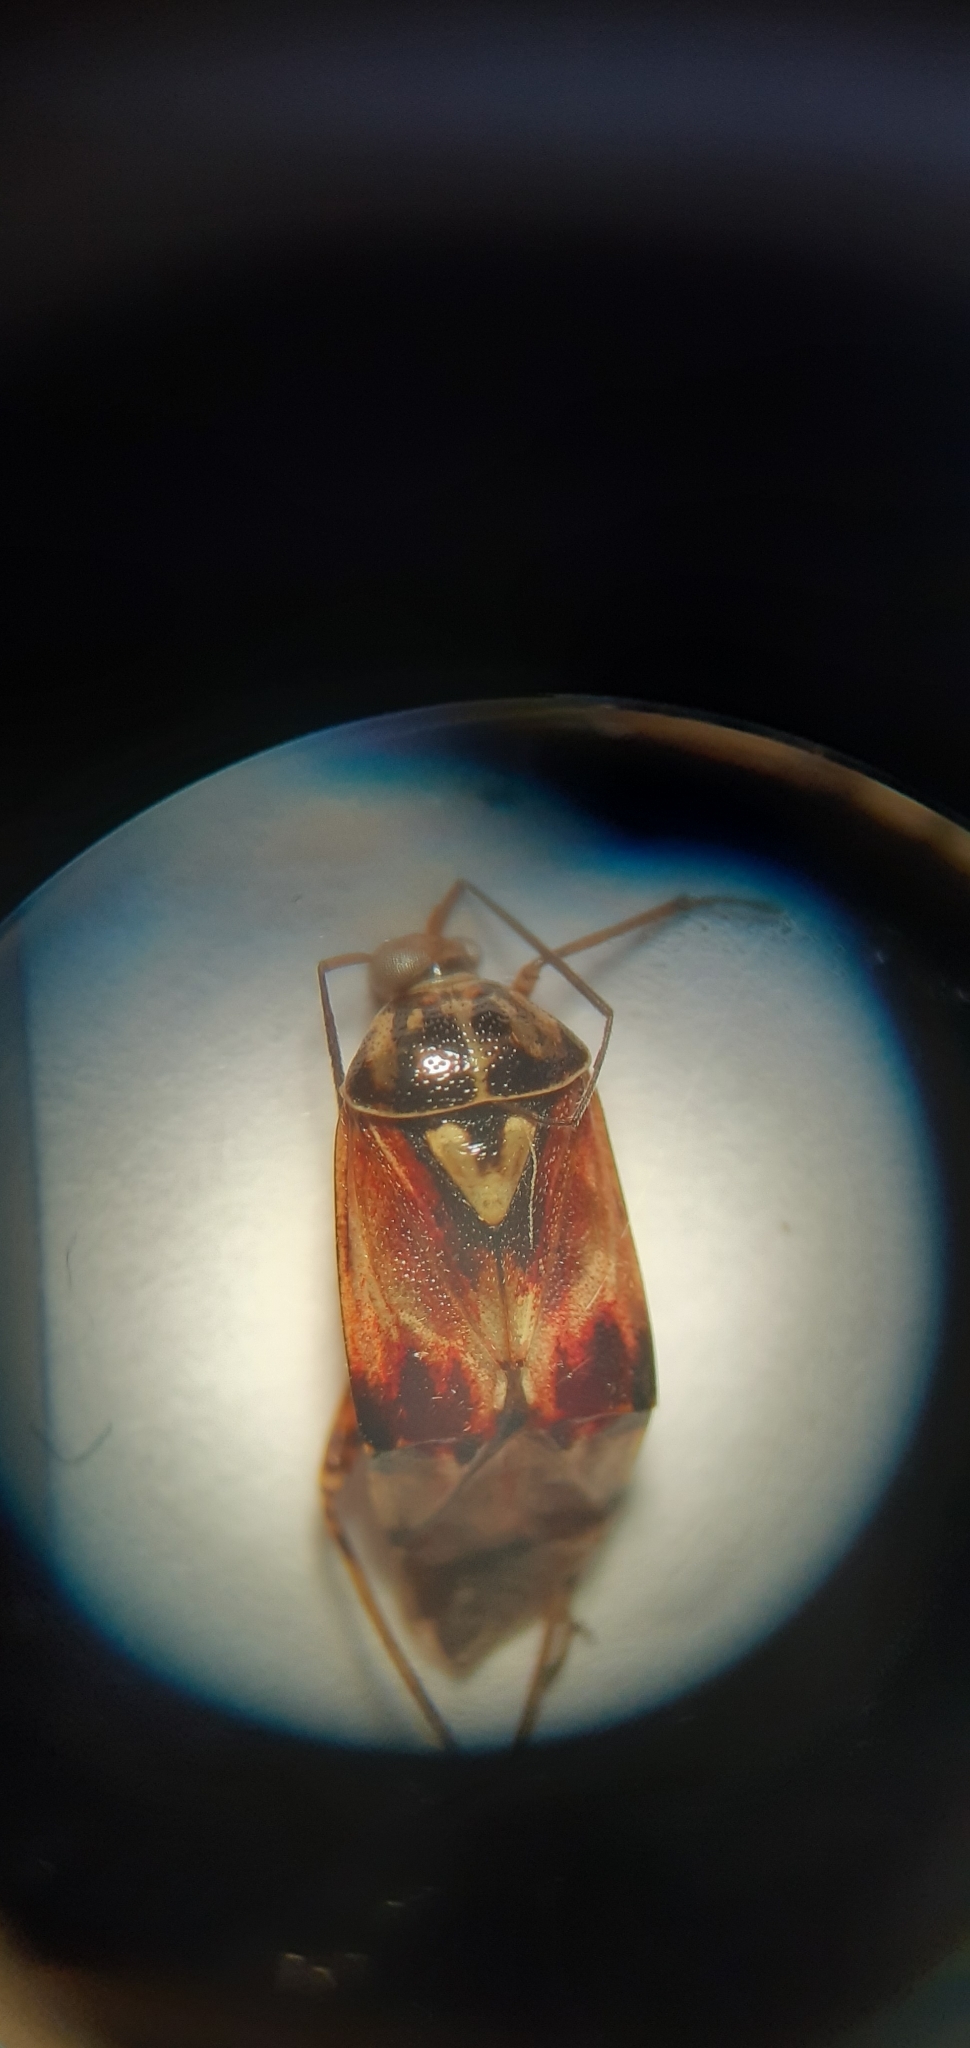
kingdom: Animalia
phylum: Arthropoda
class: Insecta
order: Hemiptera
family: Miridae
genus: Lygus
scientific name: Lygus pratensis
